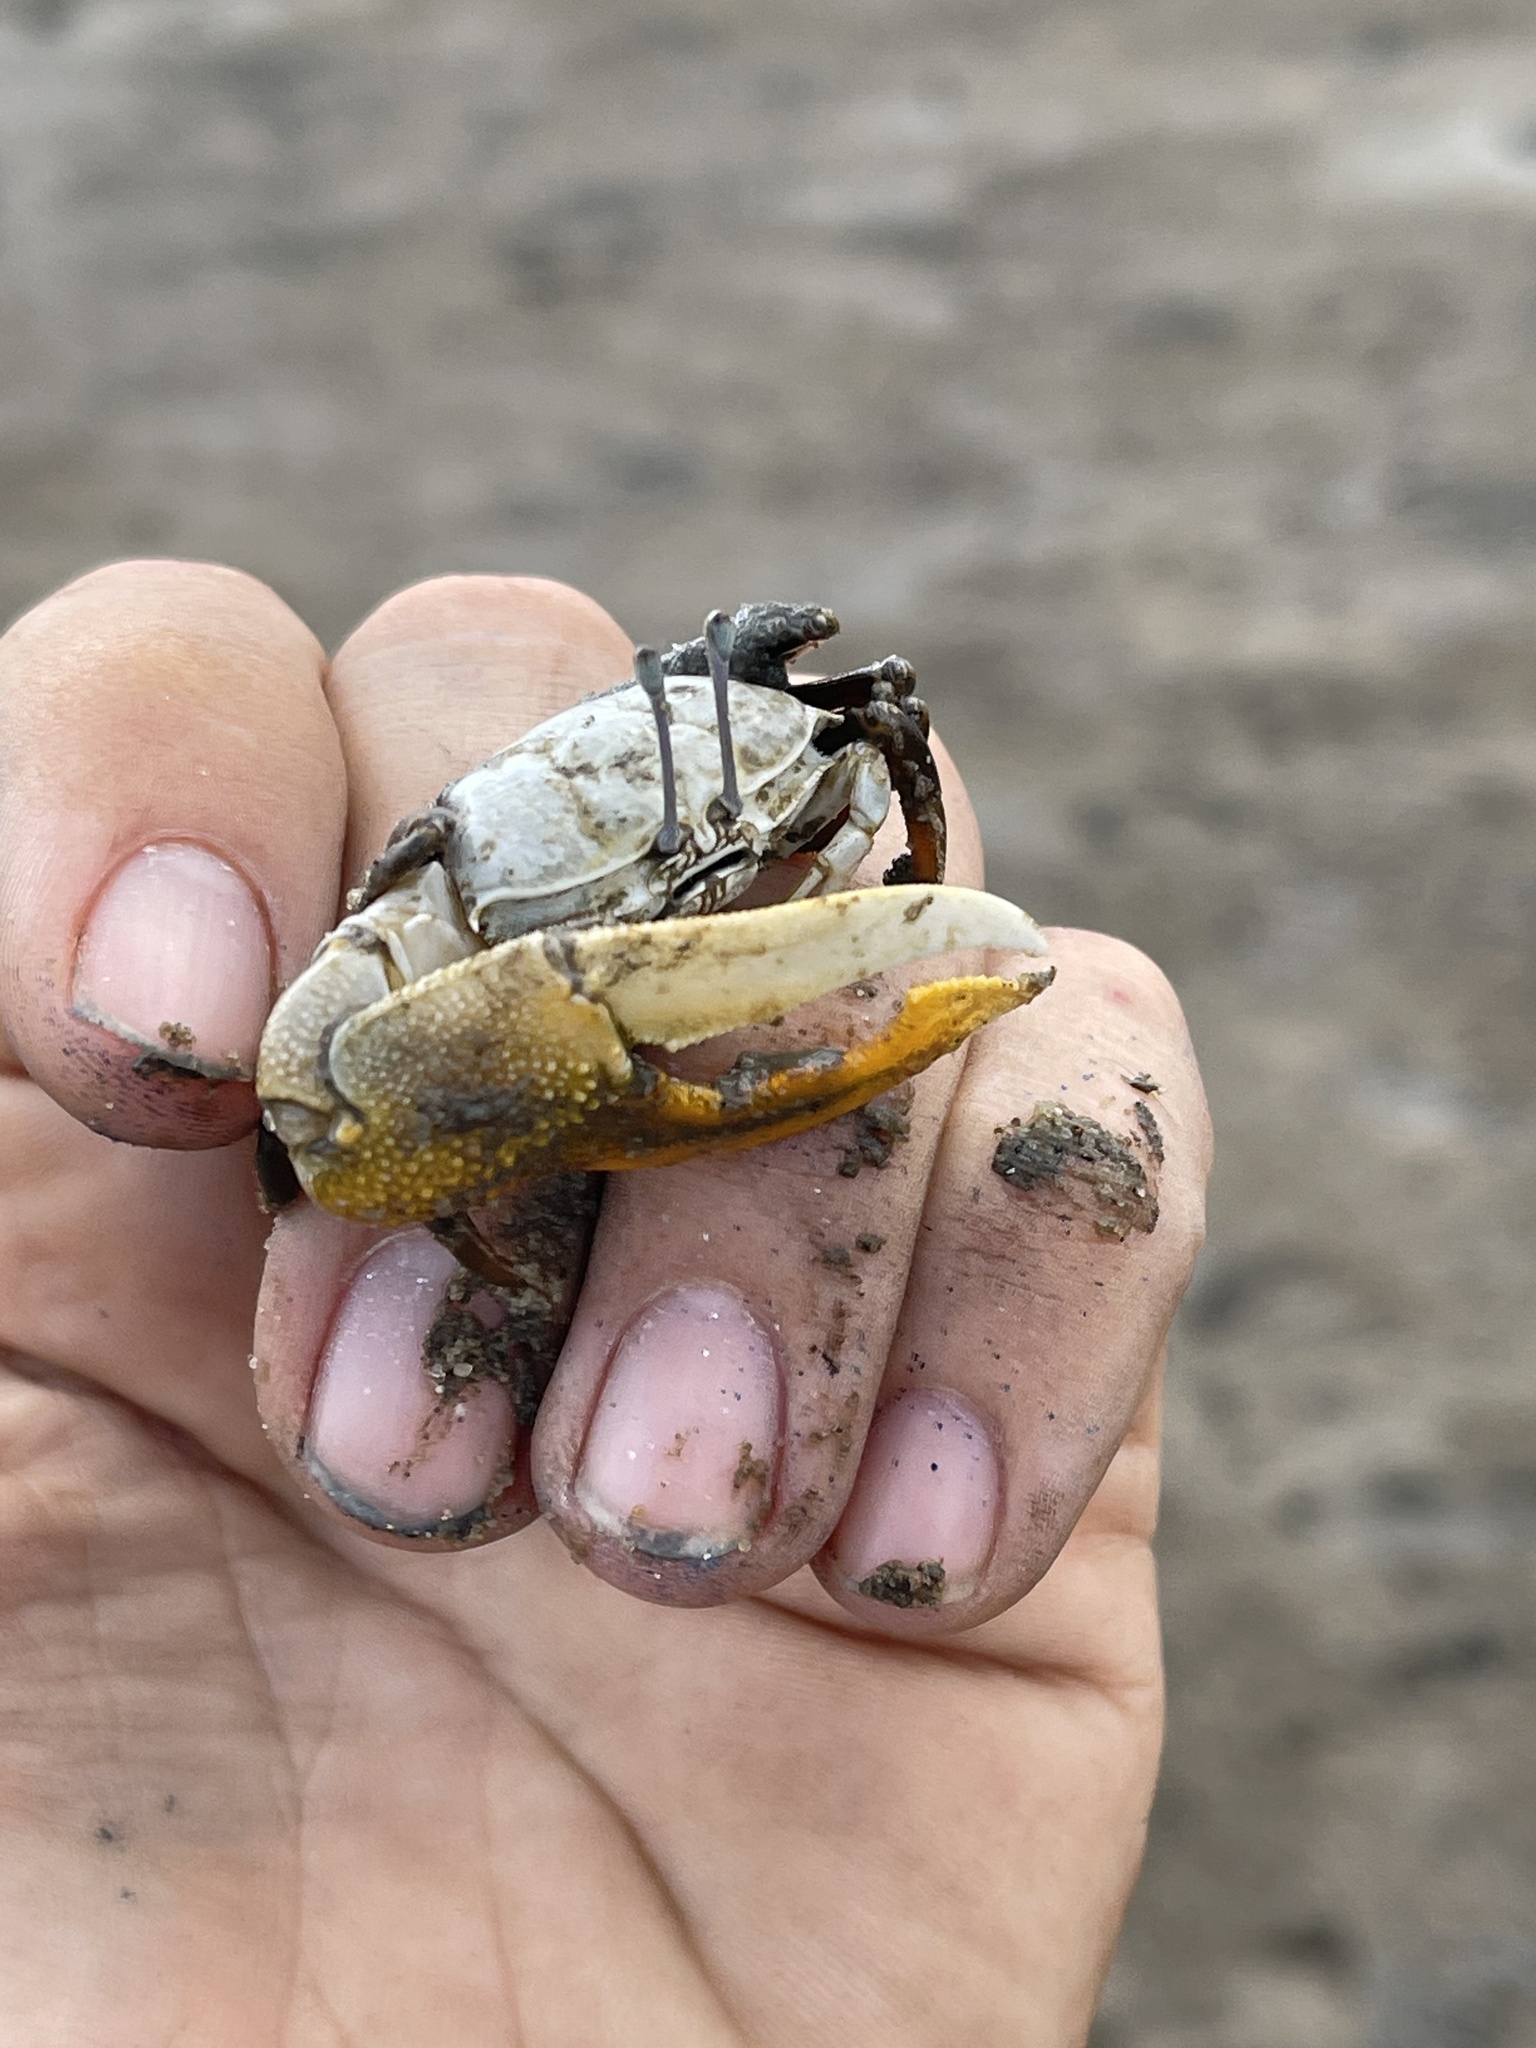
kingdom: Animalia
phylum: Arthropoda
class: Malacostraca
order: Decapoda
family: Ocypodidae
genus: Gelasimus
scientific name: Gelasimus hesperiae
